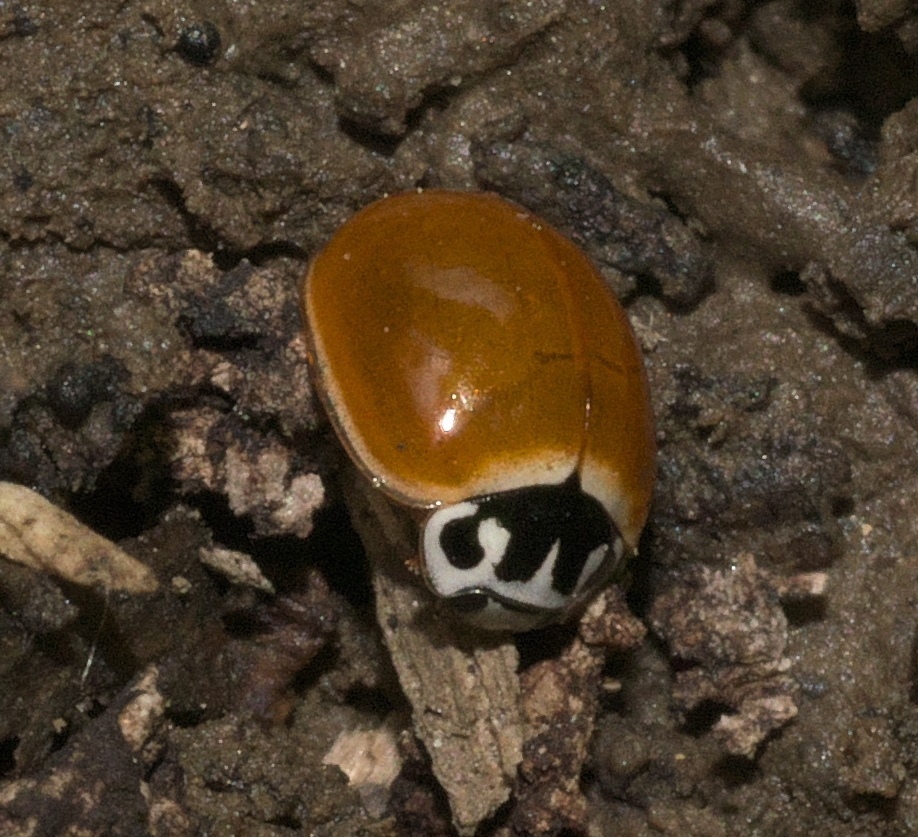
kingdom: Animalia
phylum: Arthropoda
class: Insecta
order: Coleoptera
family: Coccinellidae
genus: Cycloneda
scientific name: Cycloneda munda
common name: Polished lady beetle
